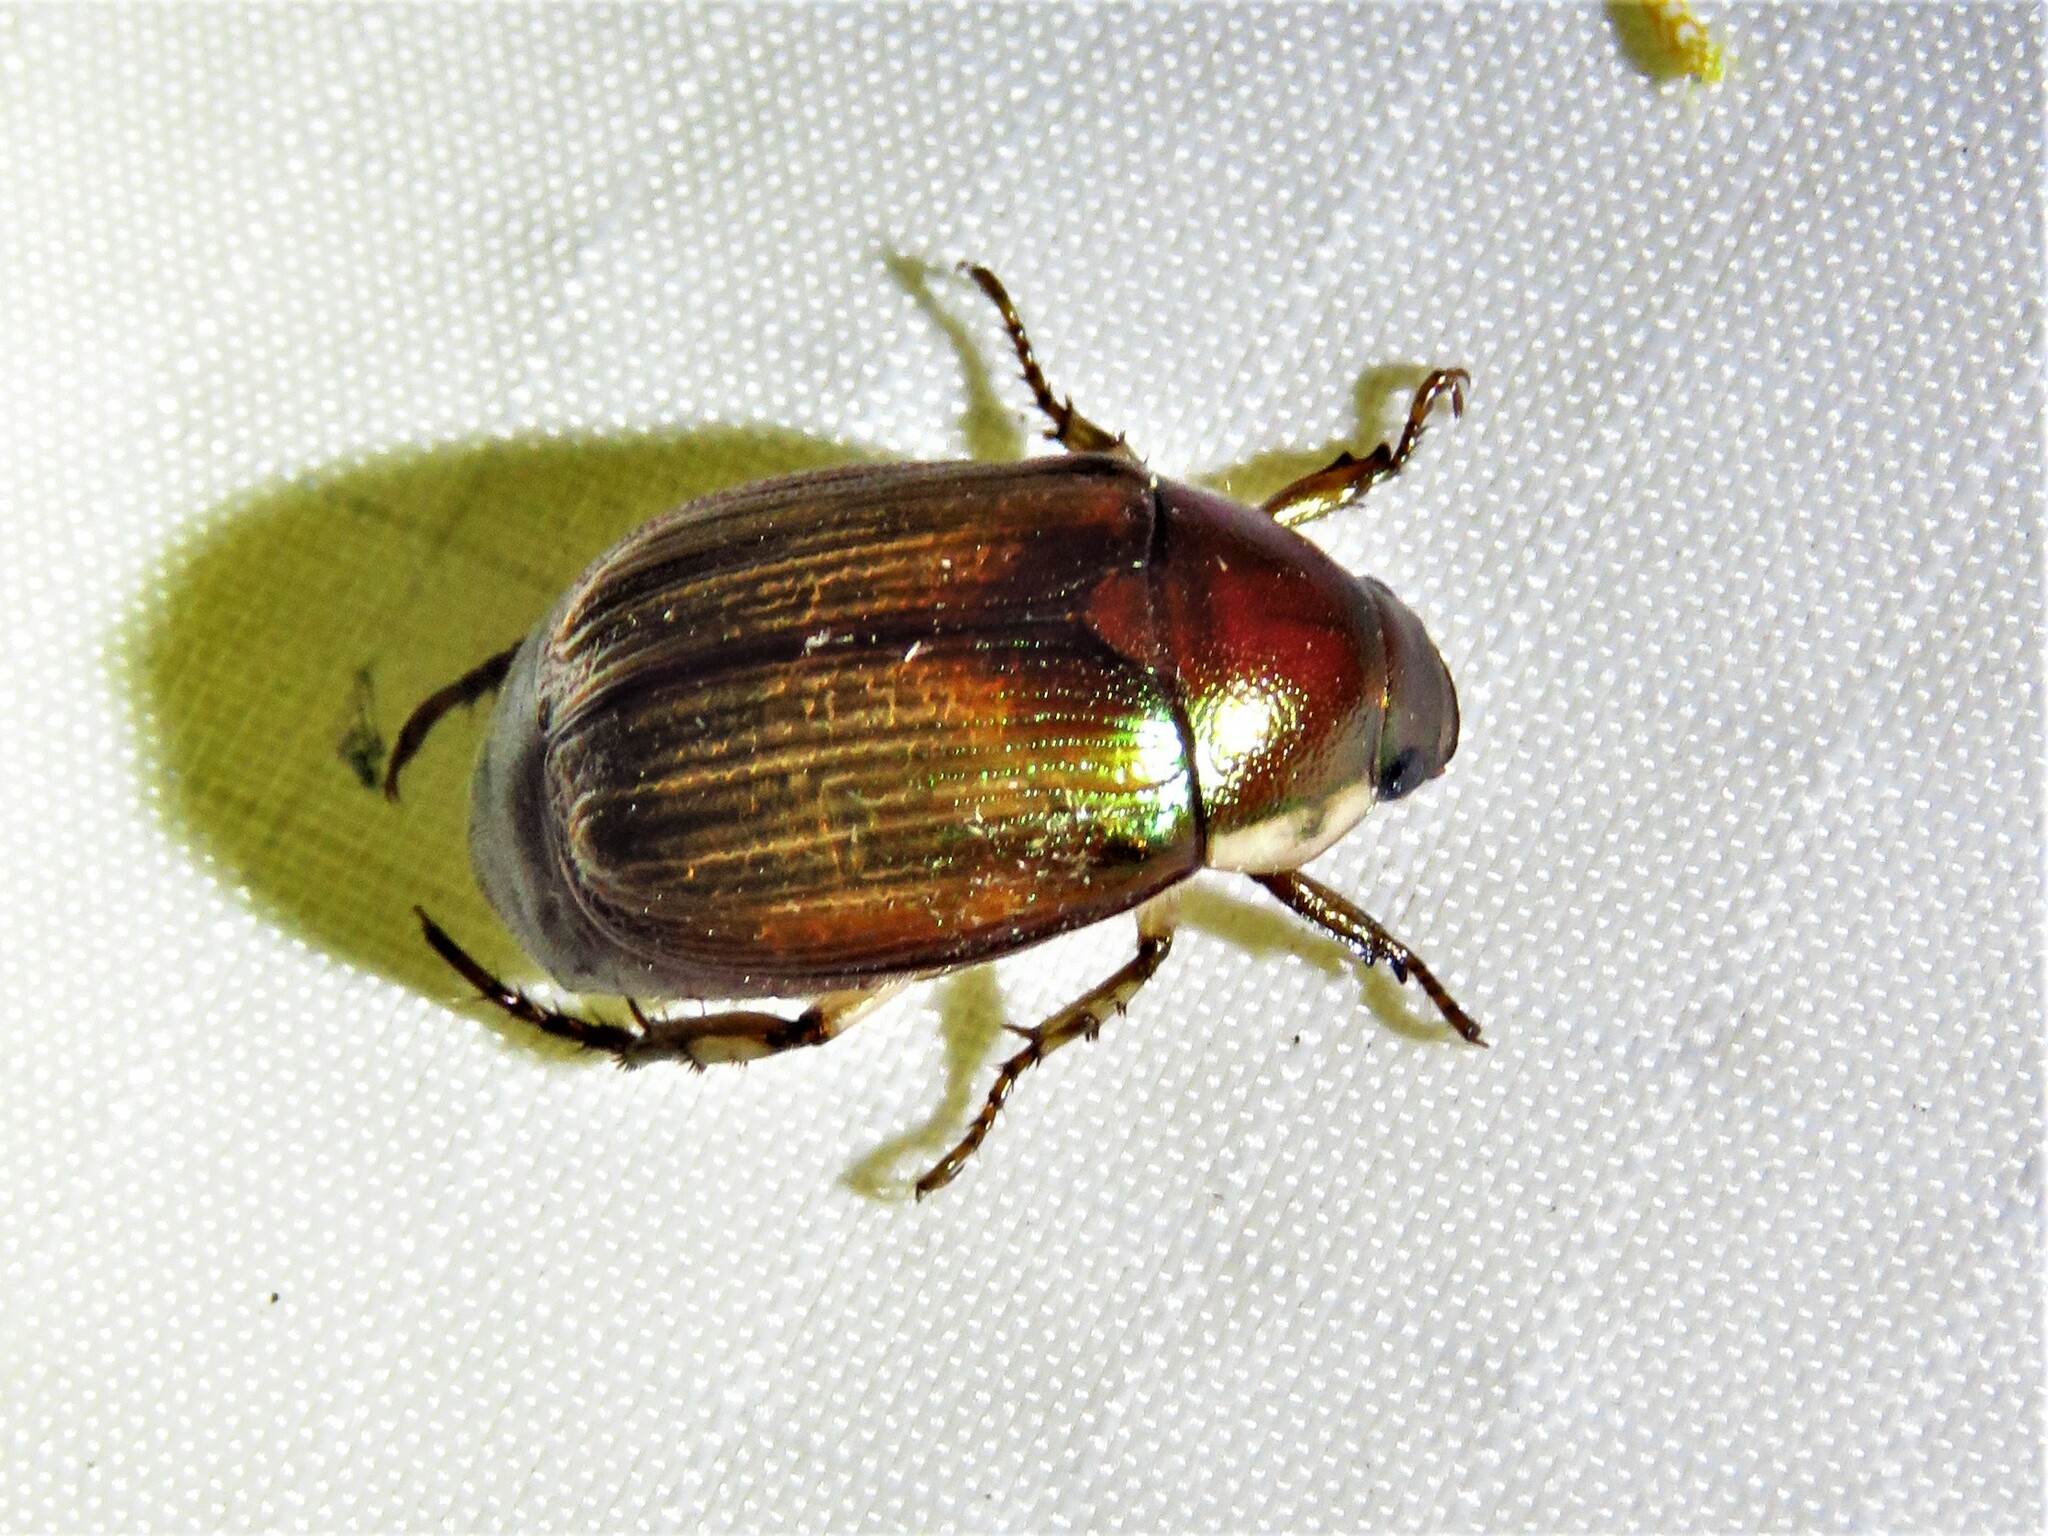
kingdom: Animalia
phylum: Arthropoda
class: Insecta
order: Coleoptera
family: Scarabaeidae
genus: Callistethus
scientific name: Callistethus marginatus
